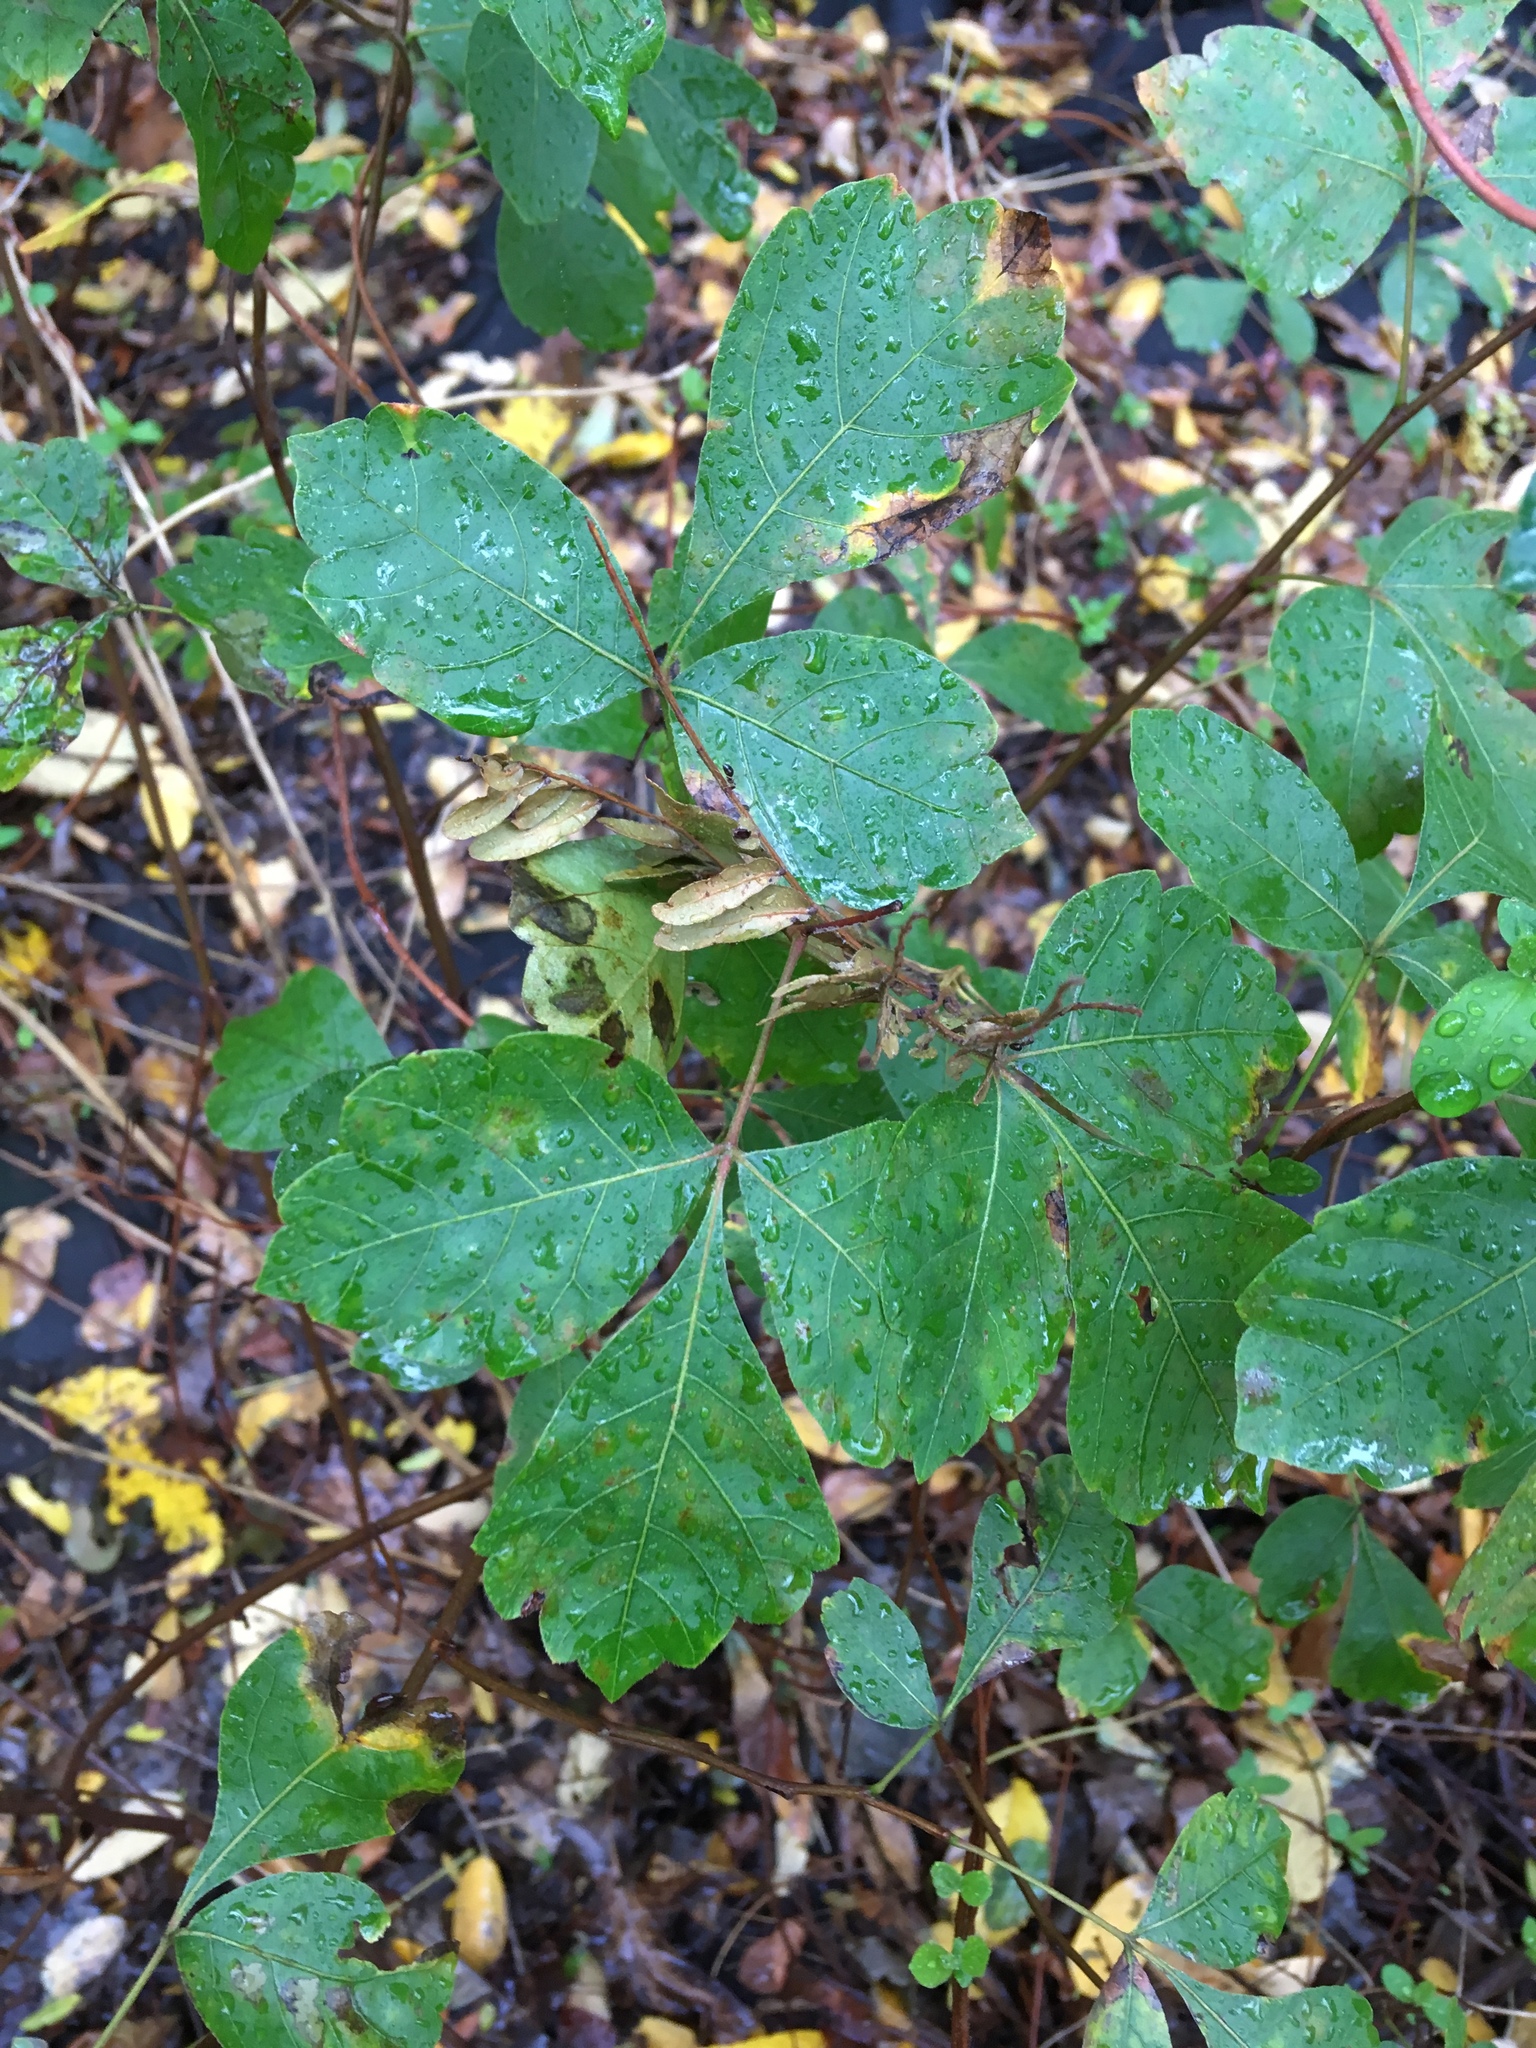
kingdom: Plantae
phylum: Tracheophyta
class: Magnoliopsida
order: Sapindales
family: Anacardiaceae
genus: Rhus
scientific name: Rhus aromatica
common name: Aromatic sumac
